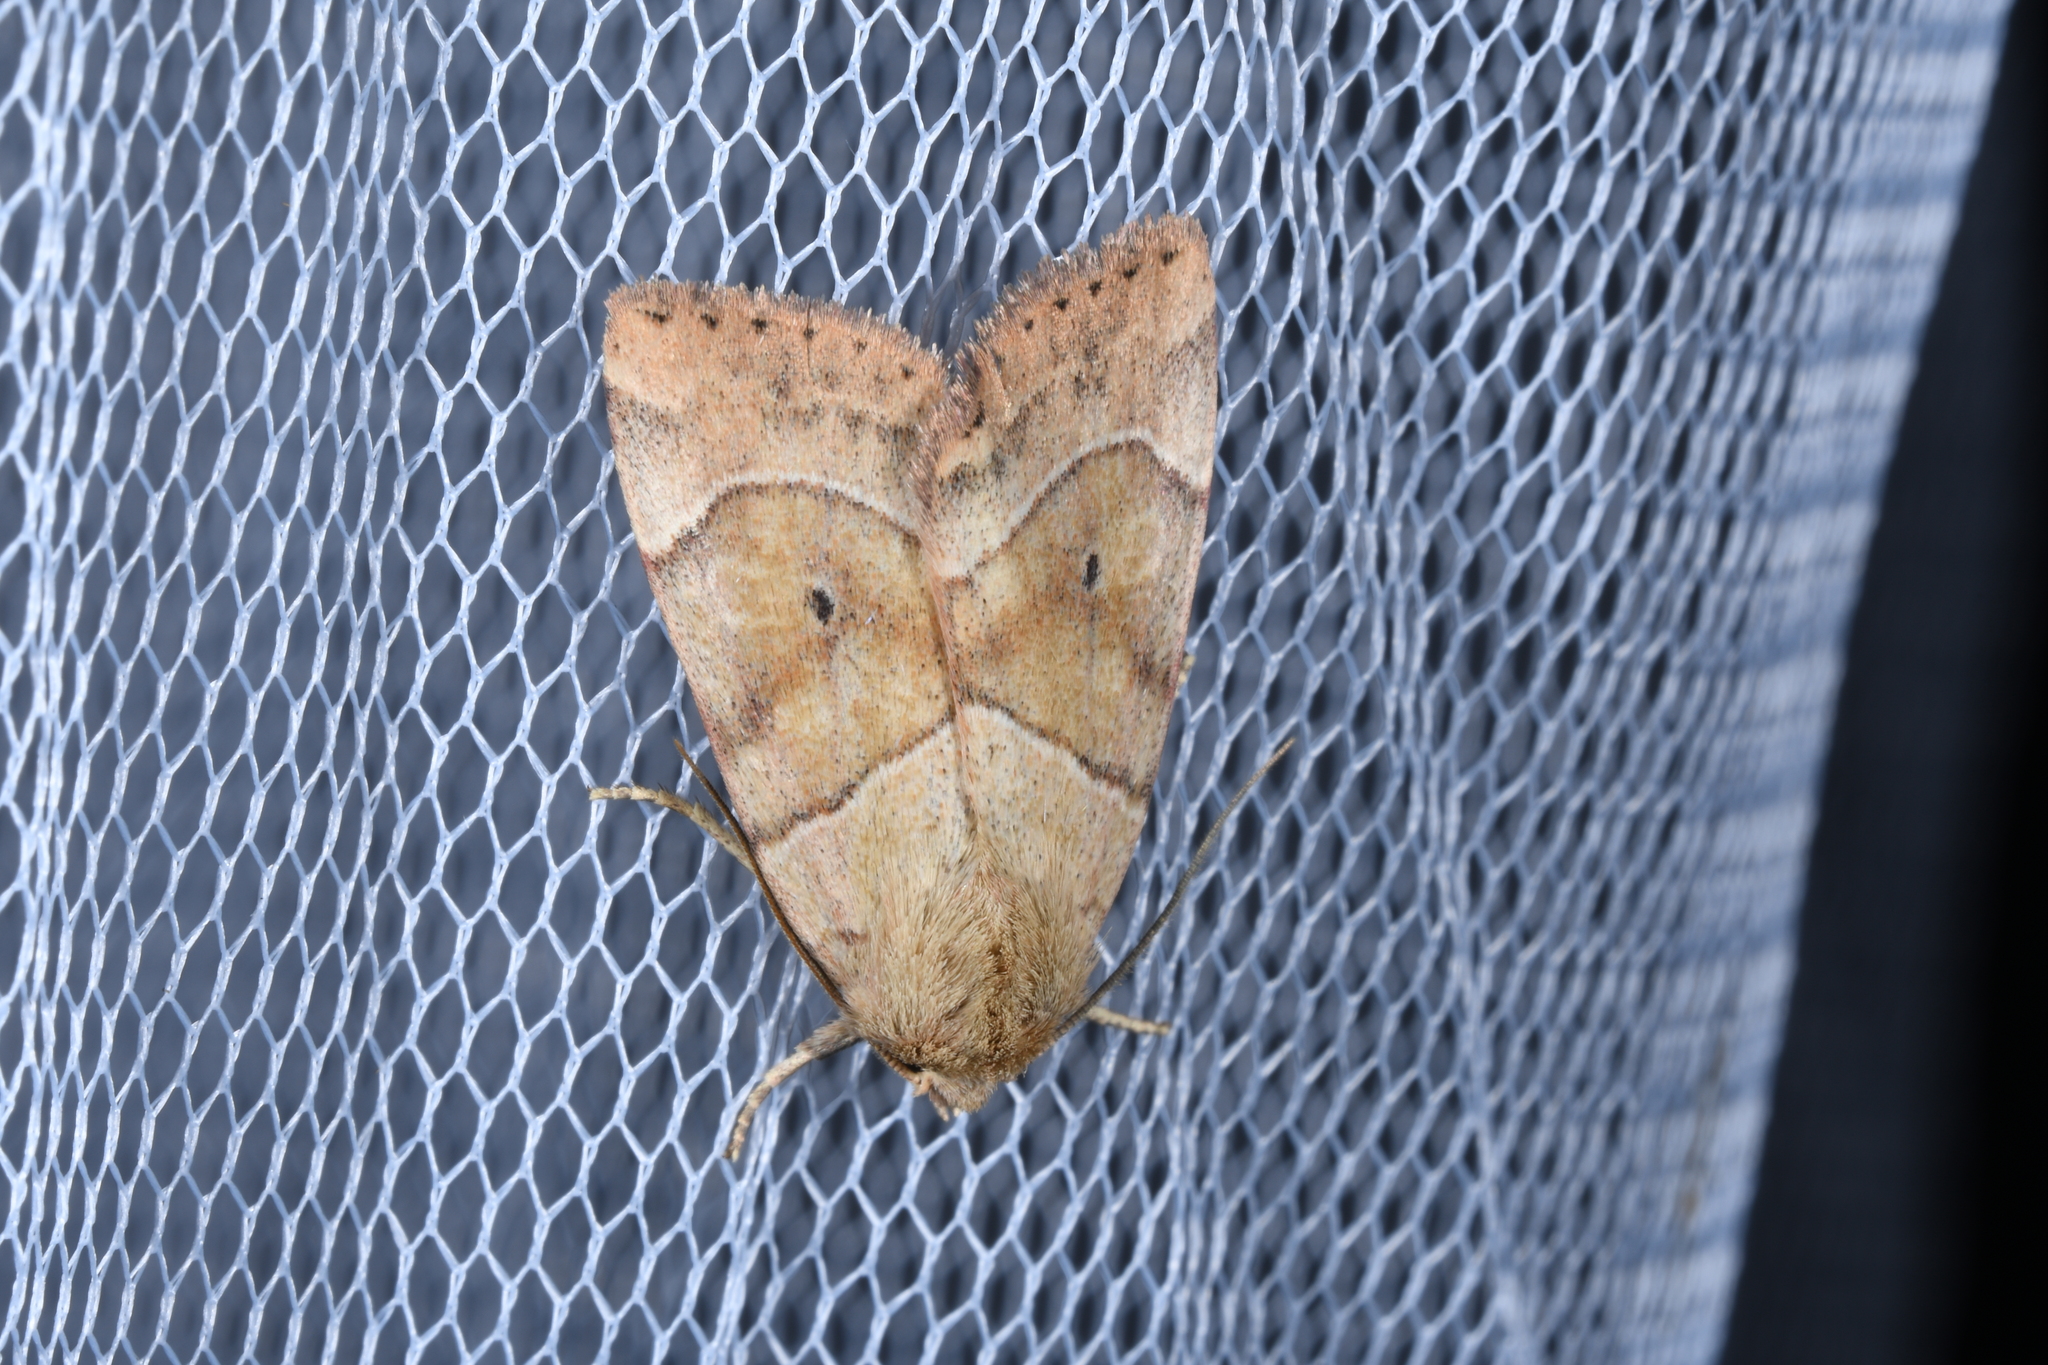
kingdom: Animalia
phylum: Arthropoda
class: Insecta
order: Lepidoptera
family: Noctuidae
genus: Cosmia
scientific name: Cosmia trapezina
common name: Dun-bar
